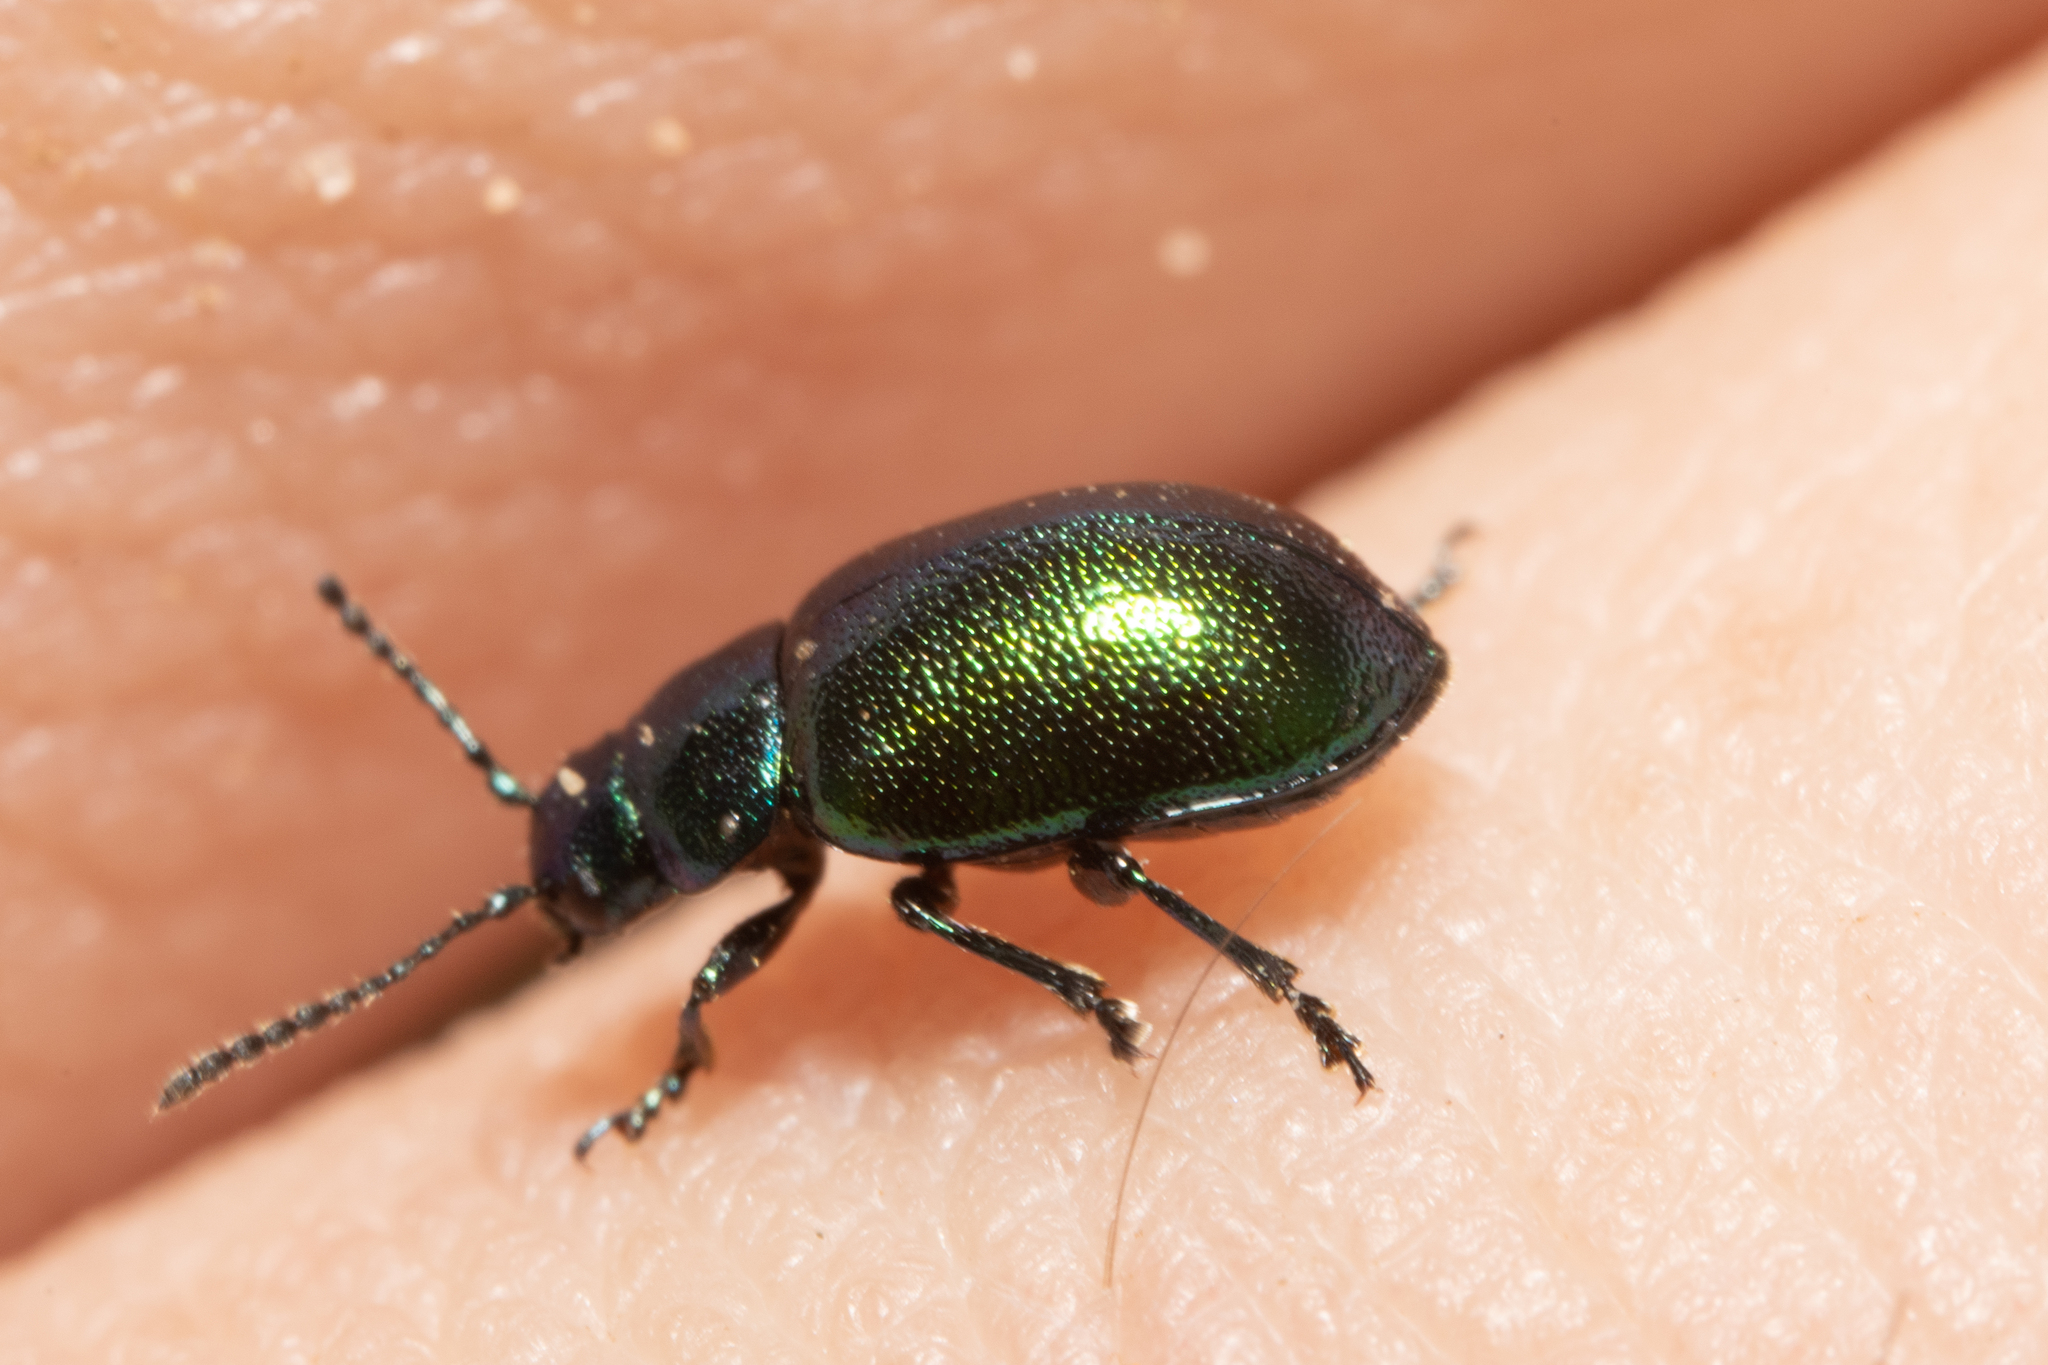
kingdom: Animalia
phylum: Arthropoda
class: Insecta
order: Coleoptera
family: Chrysomelidae
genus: Gastrophysa
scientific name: Gastrophysa viridula
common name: Green dock beetle
